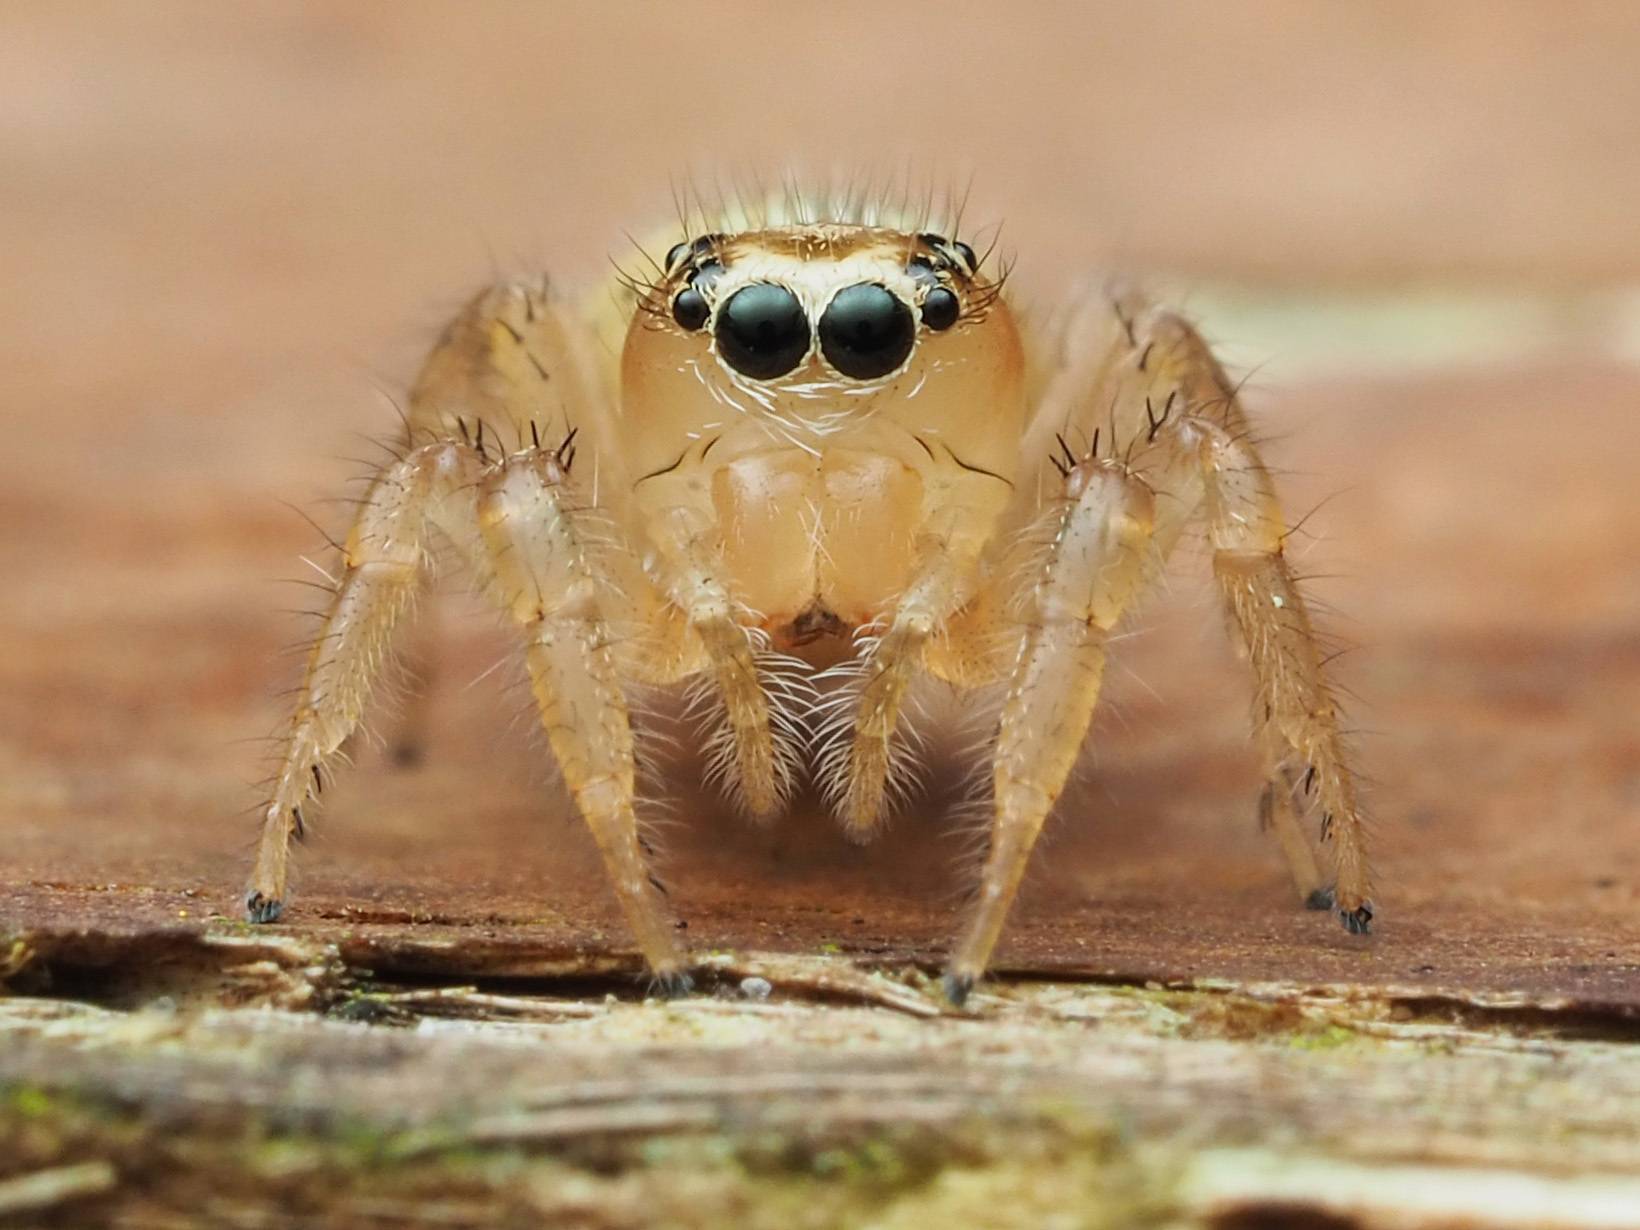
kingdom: Animalia
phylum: Arthropoda
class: Arachnida
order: Araneae
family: Salticidae
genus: Colonus
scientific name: Colonus puerperus
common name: Jumping spiders
